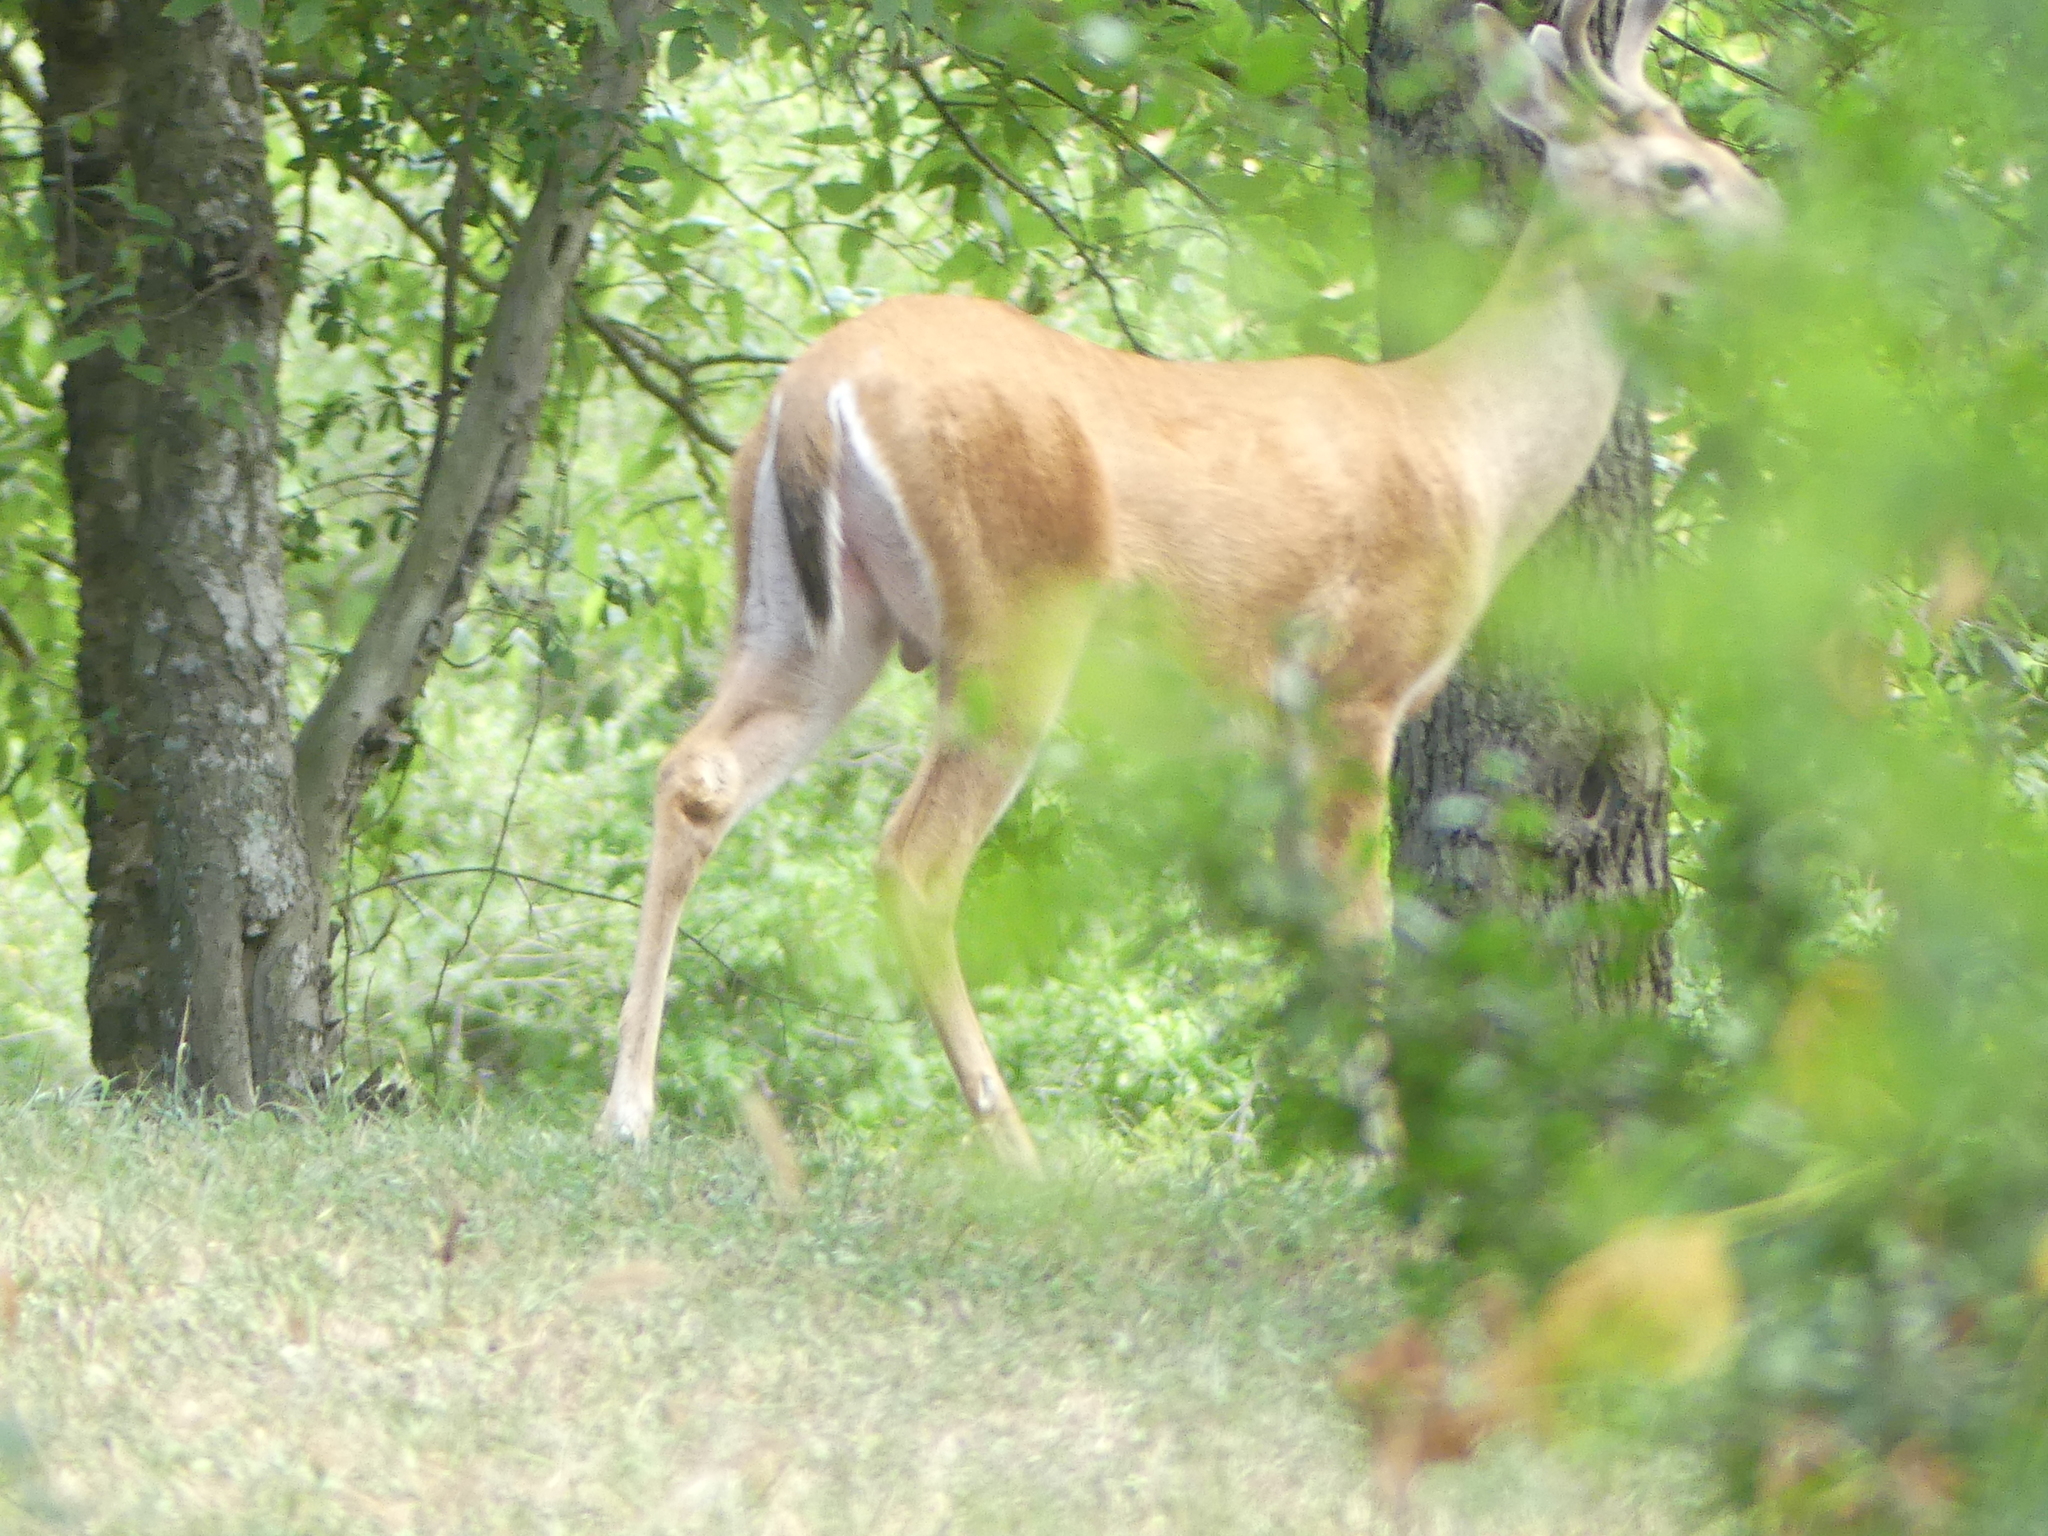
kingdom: Animalia
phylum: Chordata
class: Mammalia
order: Artiodactyla
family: Cervidae
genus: Odocoileus
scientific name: Odocoileus virginianus
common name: White-tailed deer
